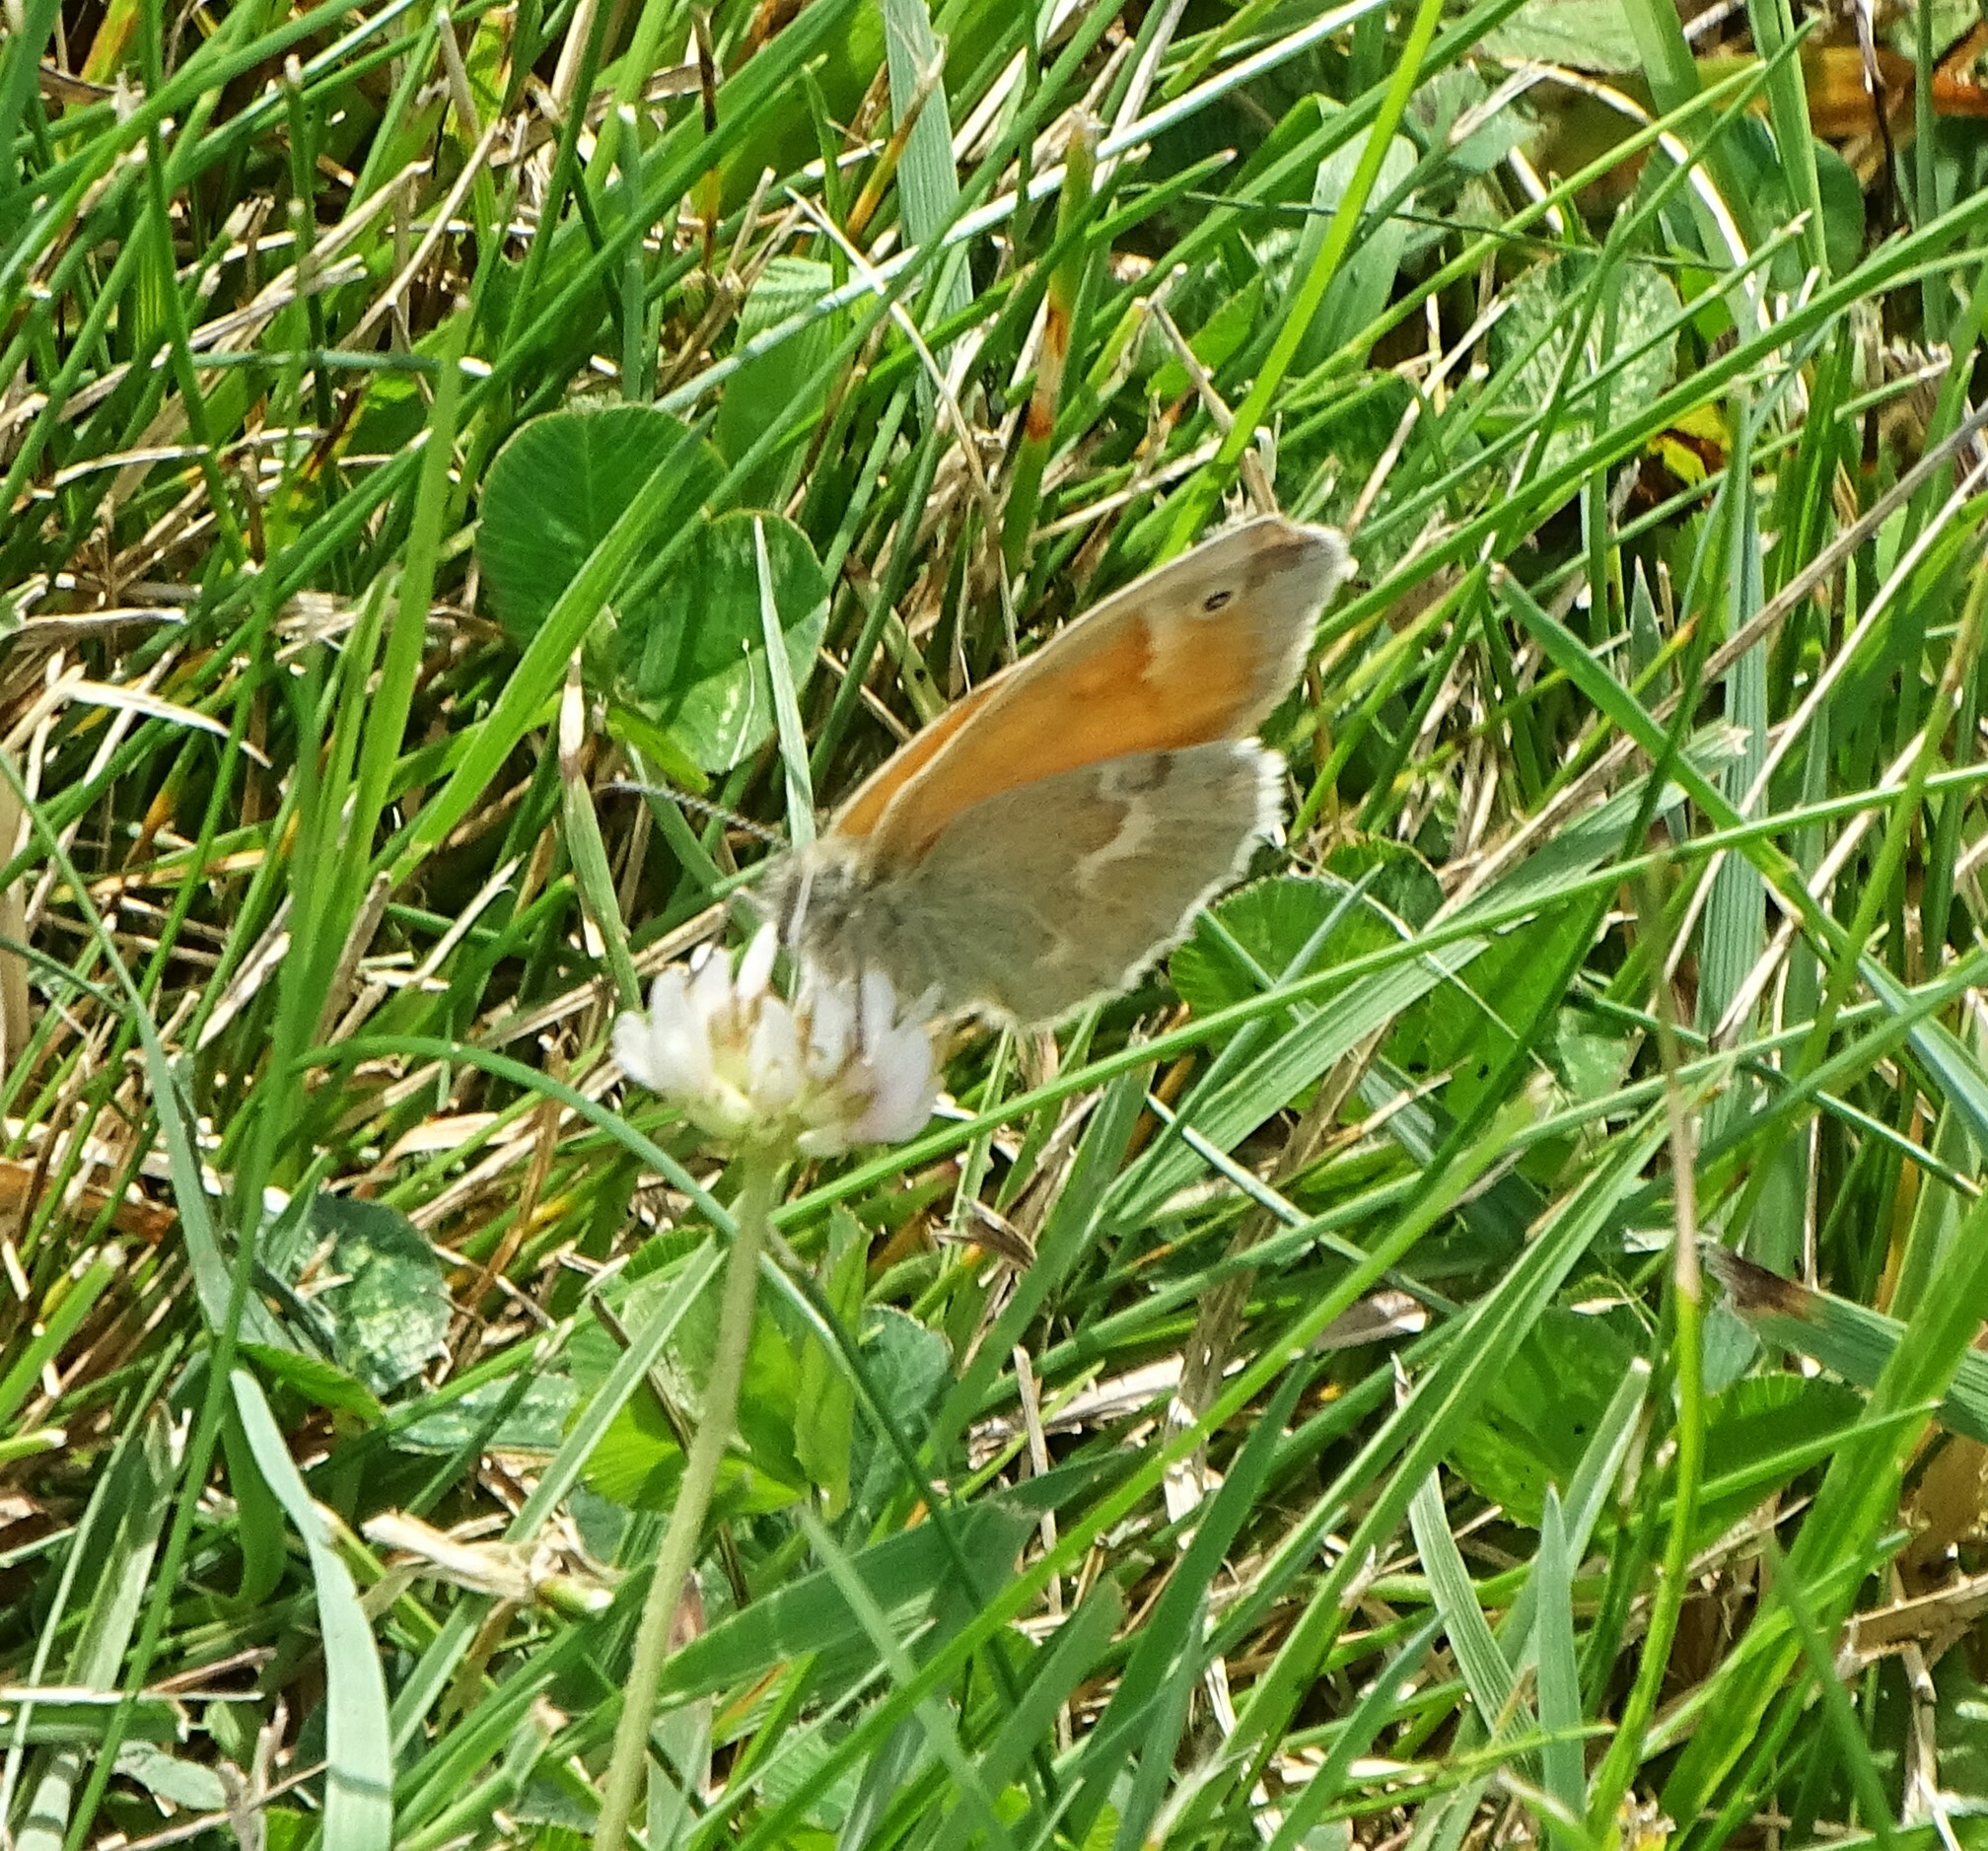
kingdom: Animalia
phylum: Arthropoda
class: Insecta
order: Lepidoptera
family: Nymphalidae
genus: Coenonympha
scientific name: Coenonympha california
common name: Common ringlet
